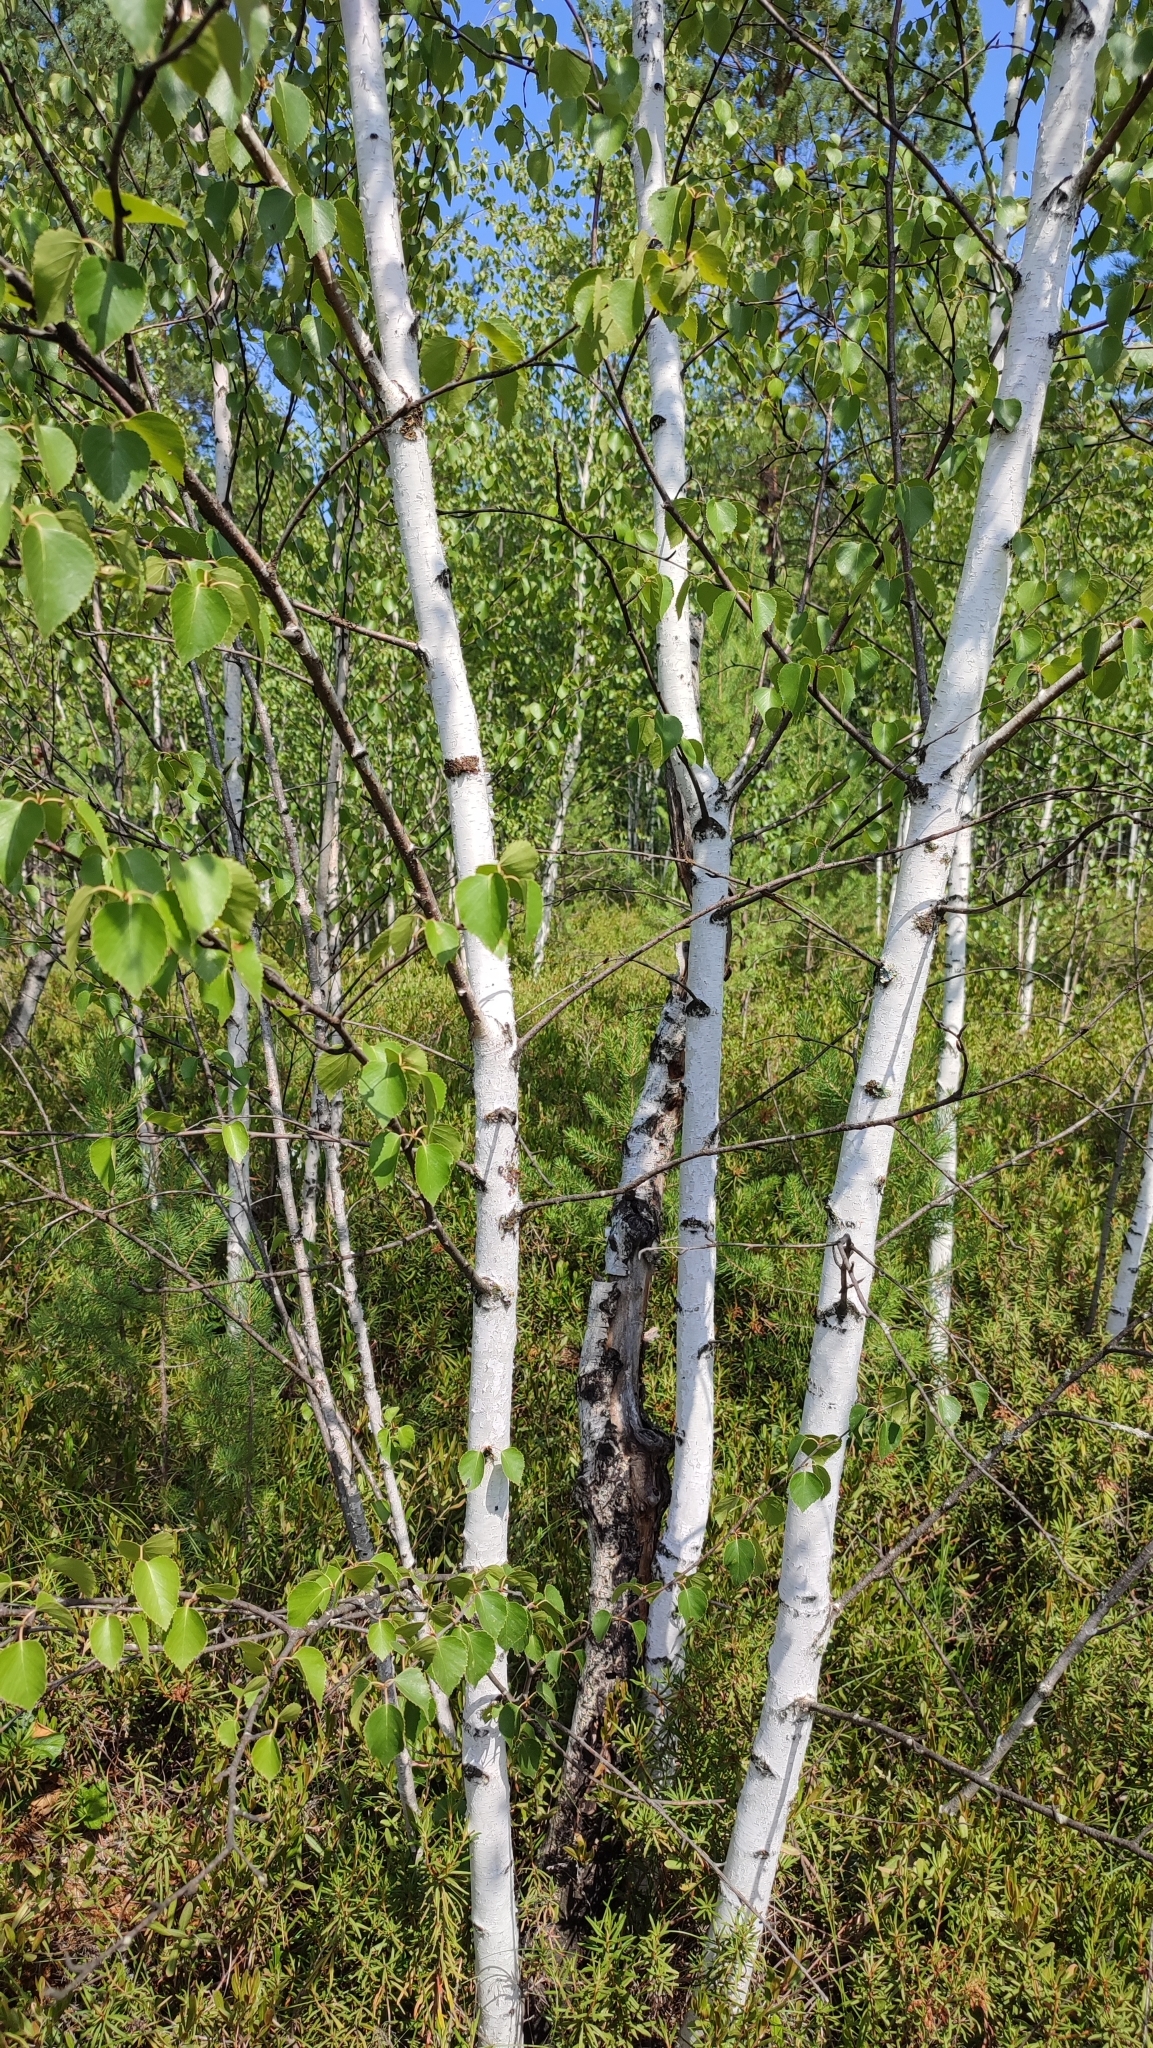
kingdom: Plantae
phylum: Tracheophyta
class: Magnoliopsida
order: Fagales
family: Betulaceae
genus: Betula
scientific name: Betula pubescens
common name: Downy birch
